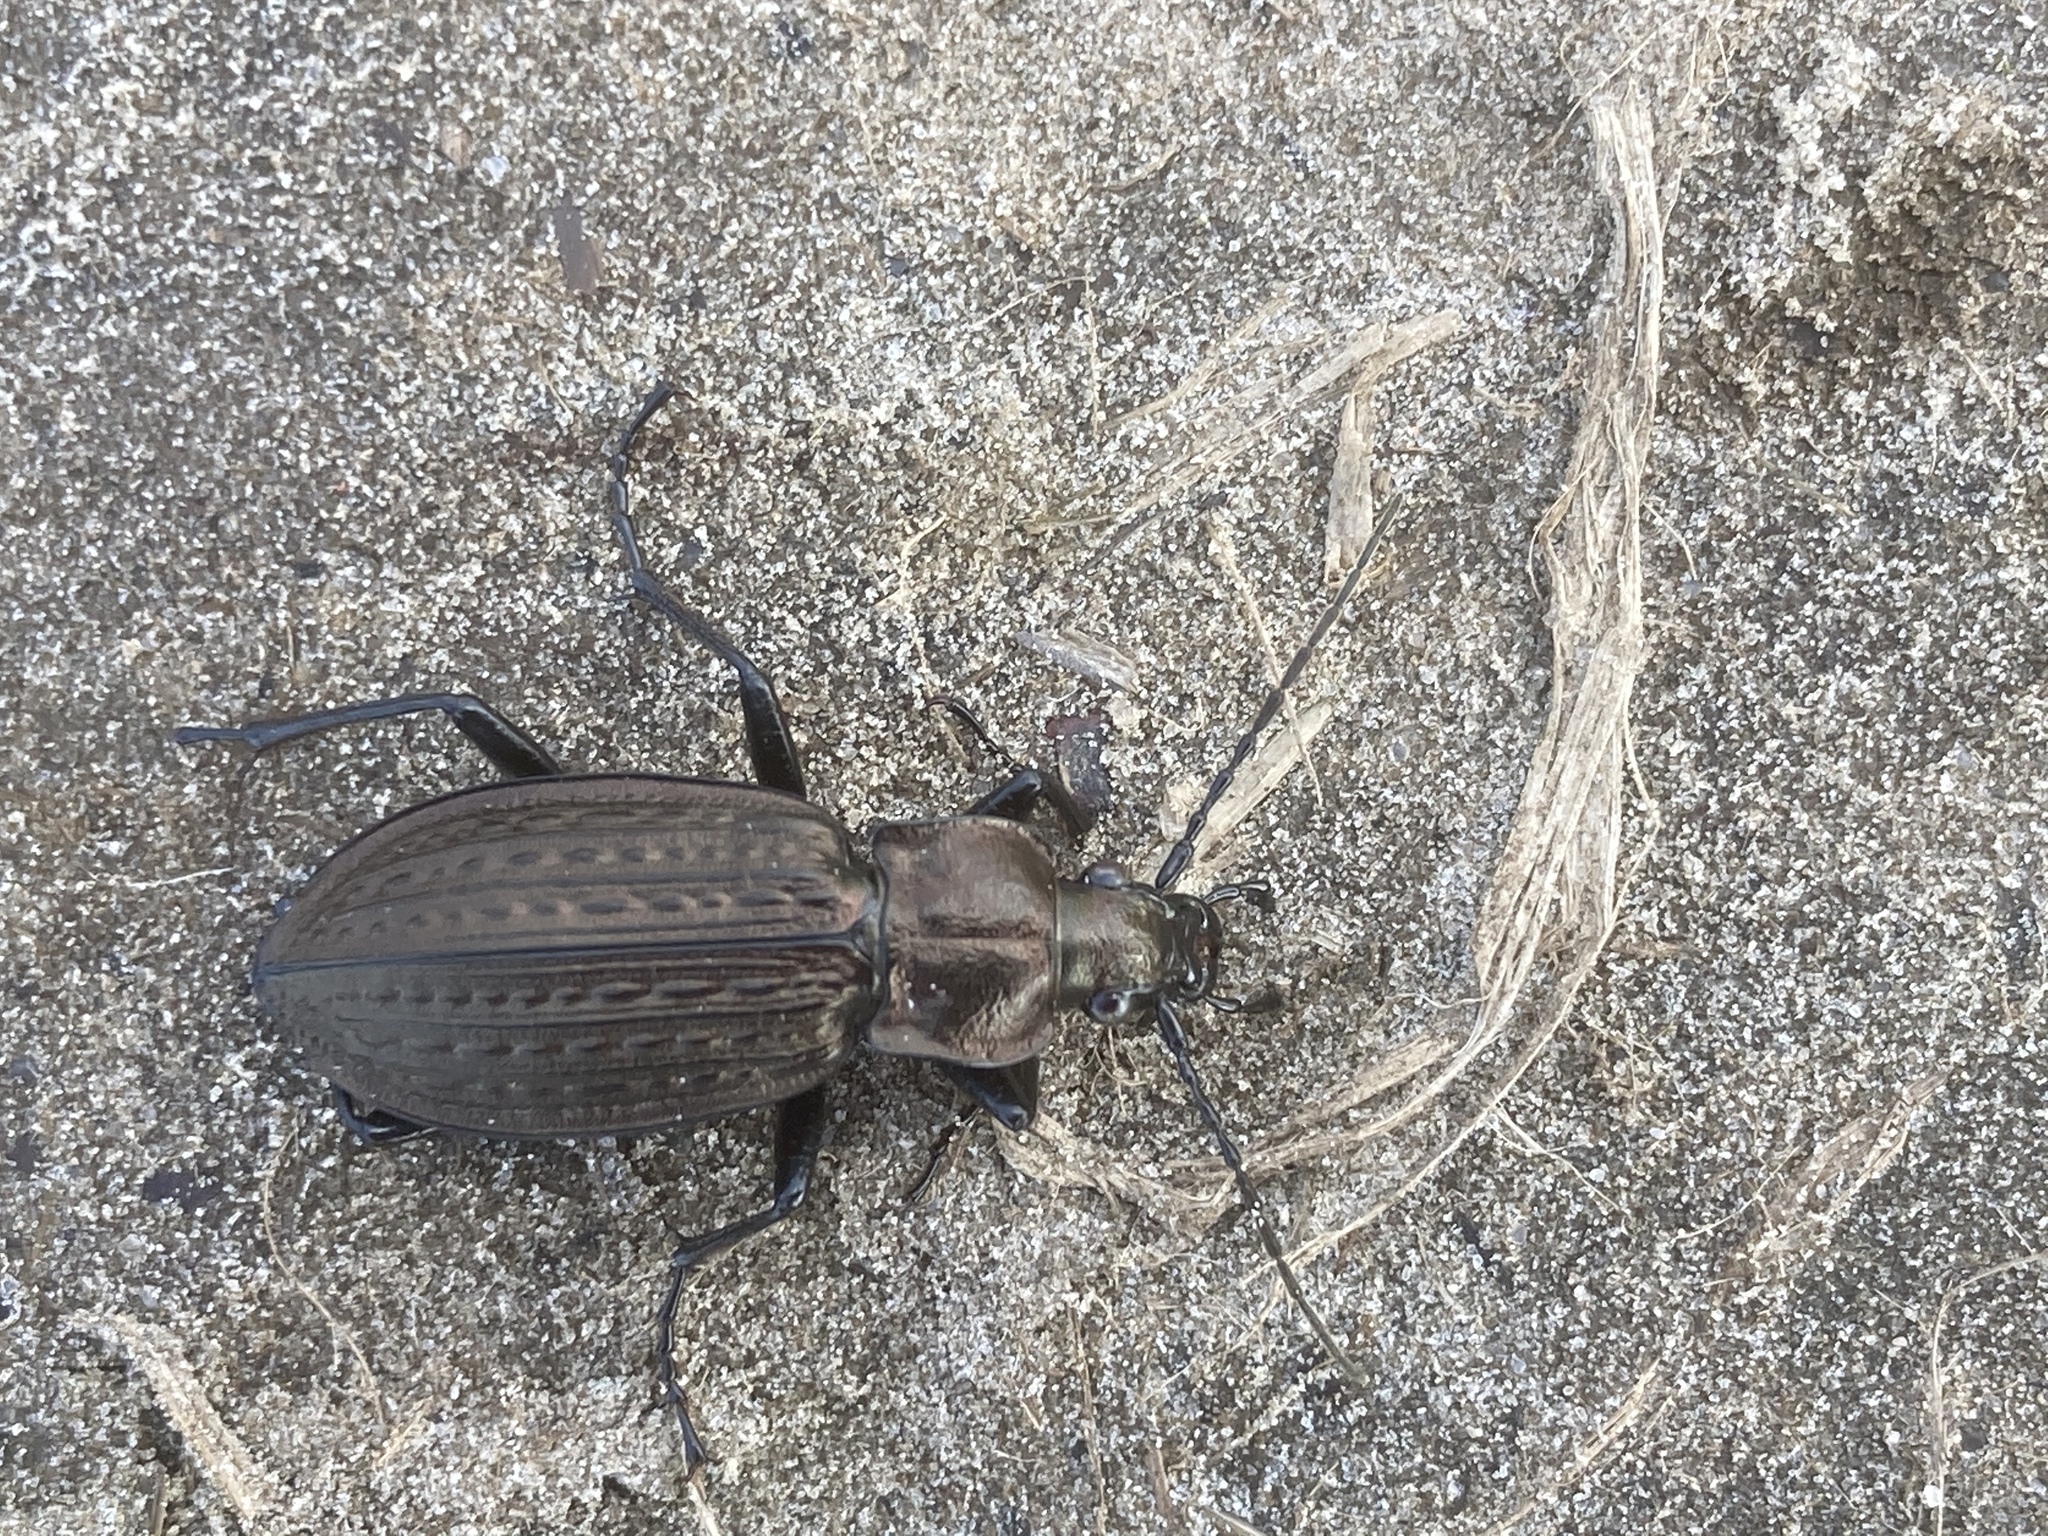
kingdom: Animalia
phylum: Arthropoda
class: Insecta
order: Coleoptera
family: Carabidae
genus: Carabus
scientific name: Carabus granulatus
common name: Granulate ground beetle
